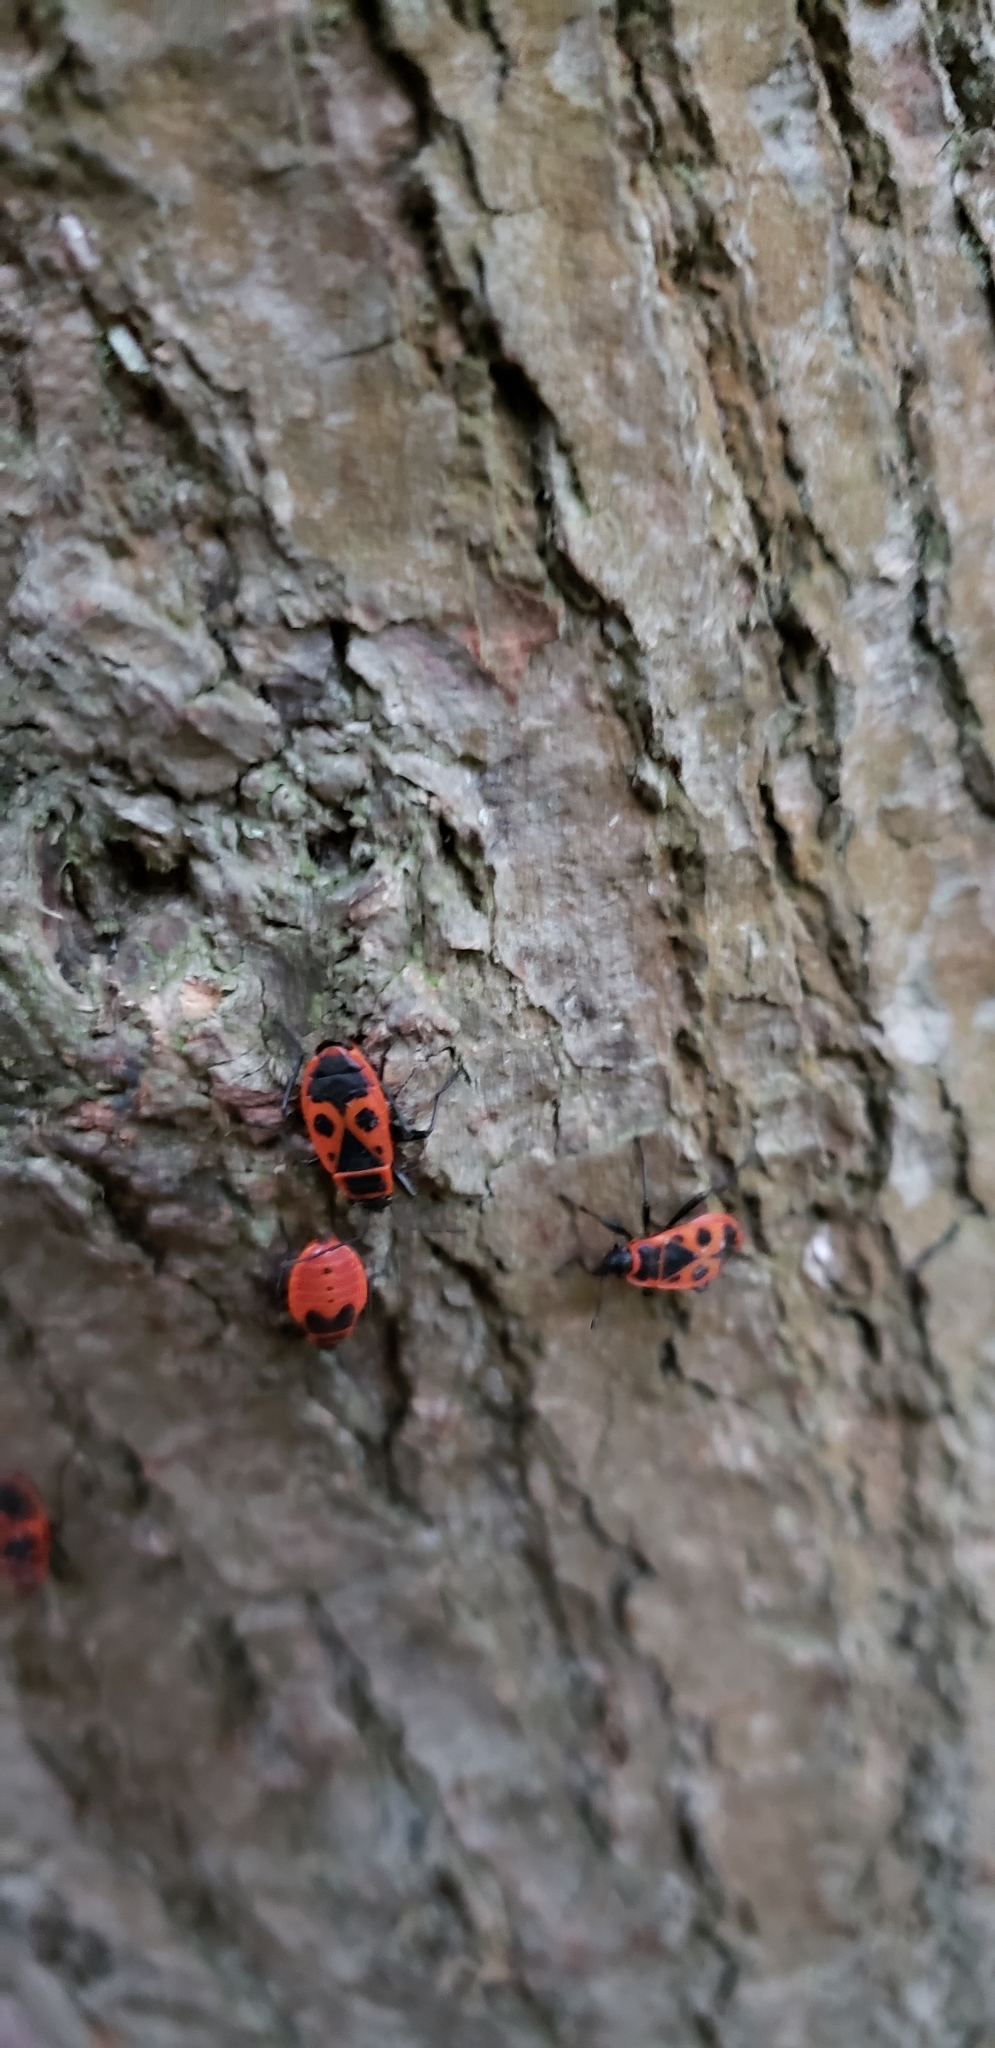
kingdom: Animalia
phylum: Arthropoda
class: Insecta
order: Hemiptera
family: Pyrrhocoridae
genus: Pyrrhocoris
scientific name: Pyrrhocoris apterus
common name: Firebug
